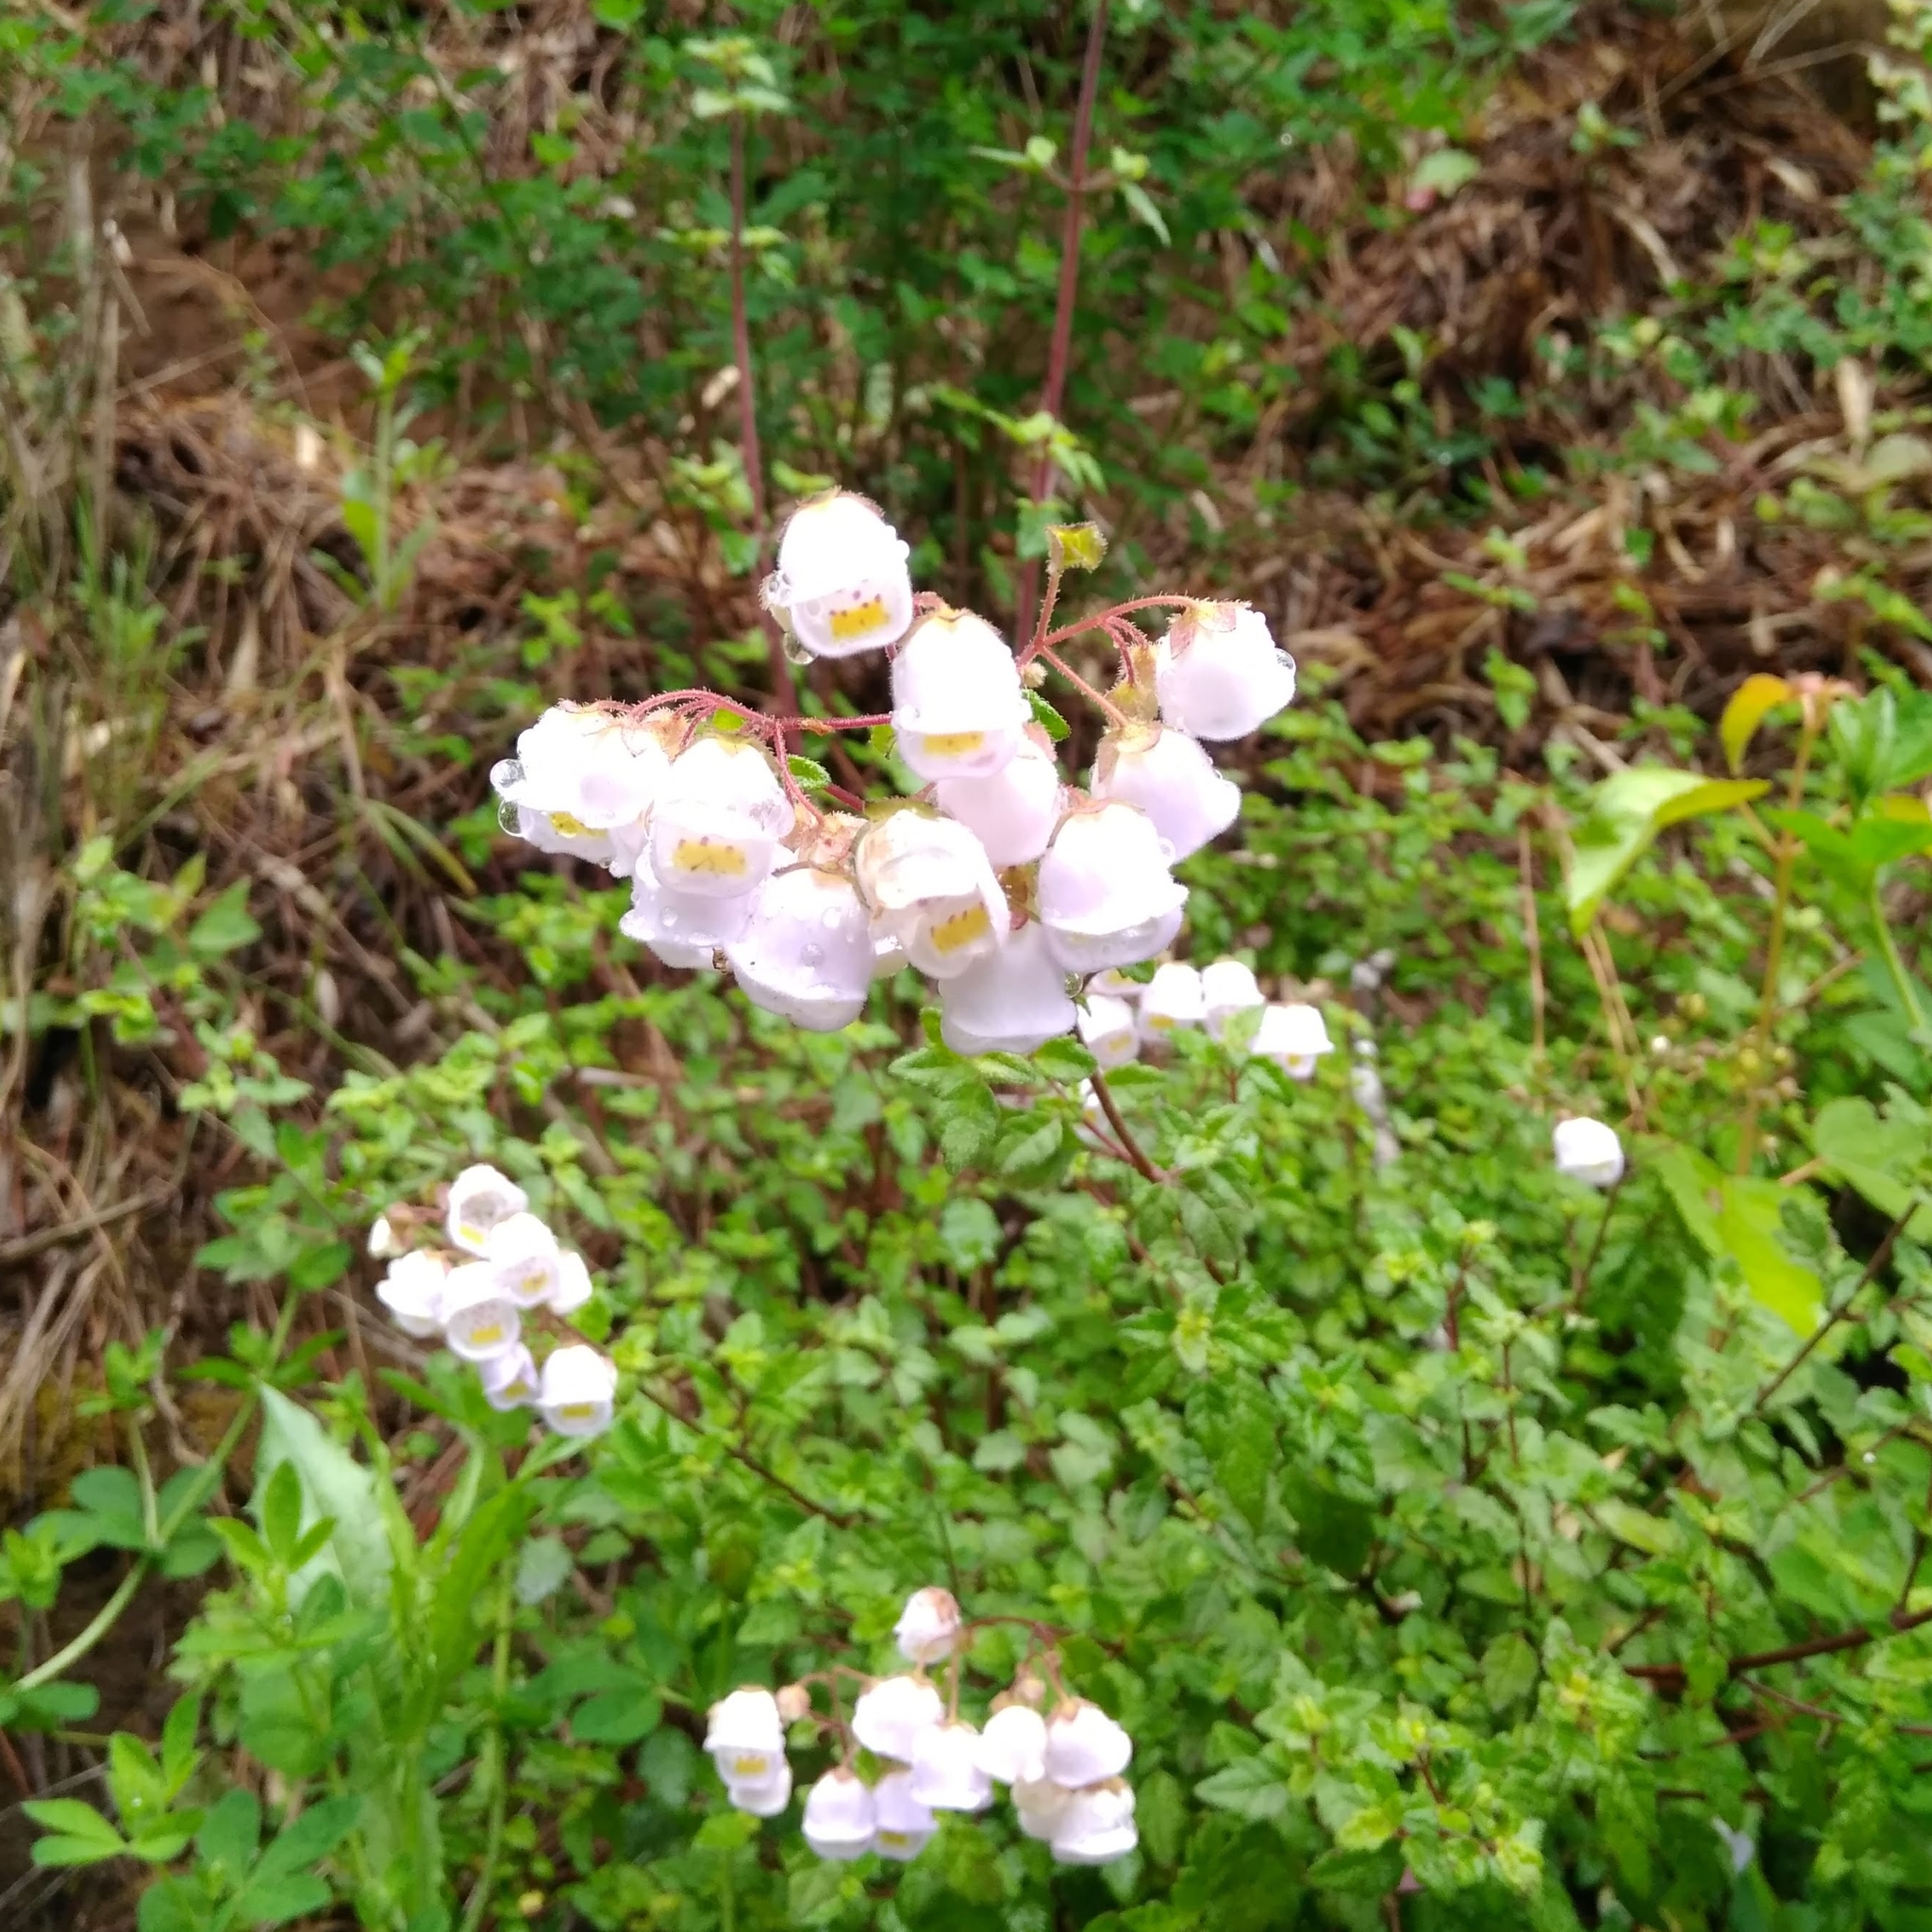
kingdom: Plantae
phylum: Tracheophyta
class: Magnoliopsida
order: Lamiales
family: Calceolariaceae
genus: Jovellana
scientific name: Jovellana violacea
